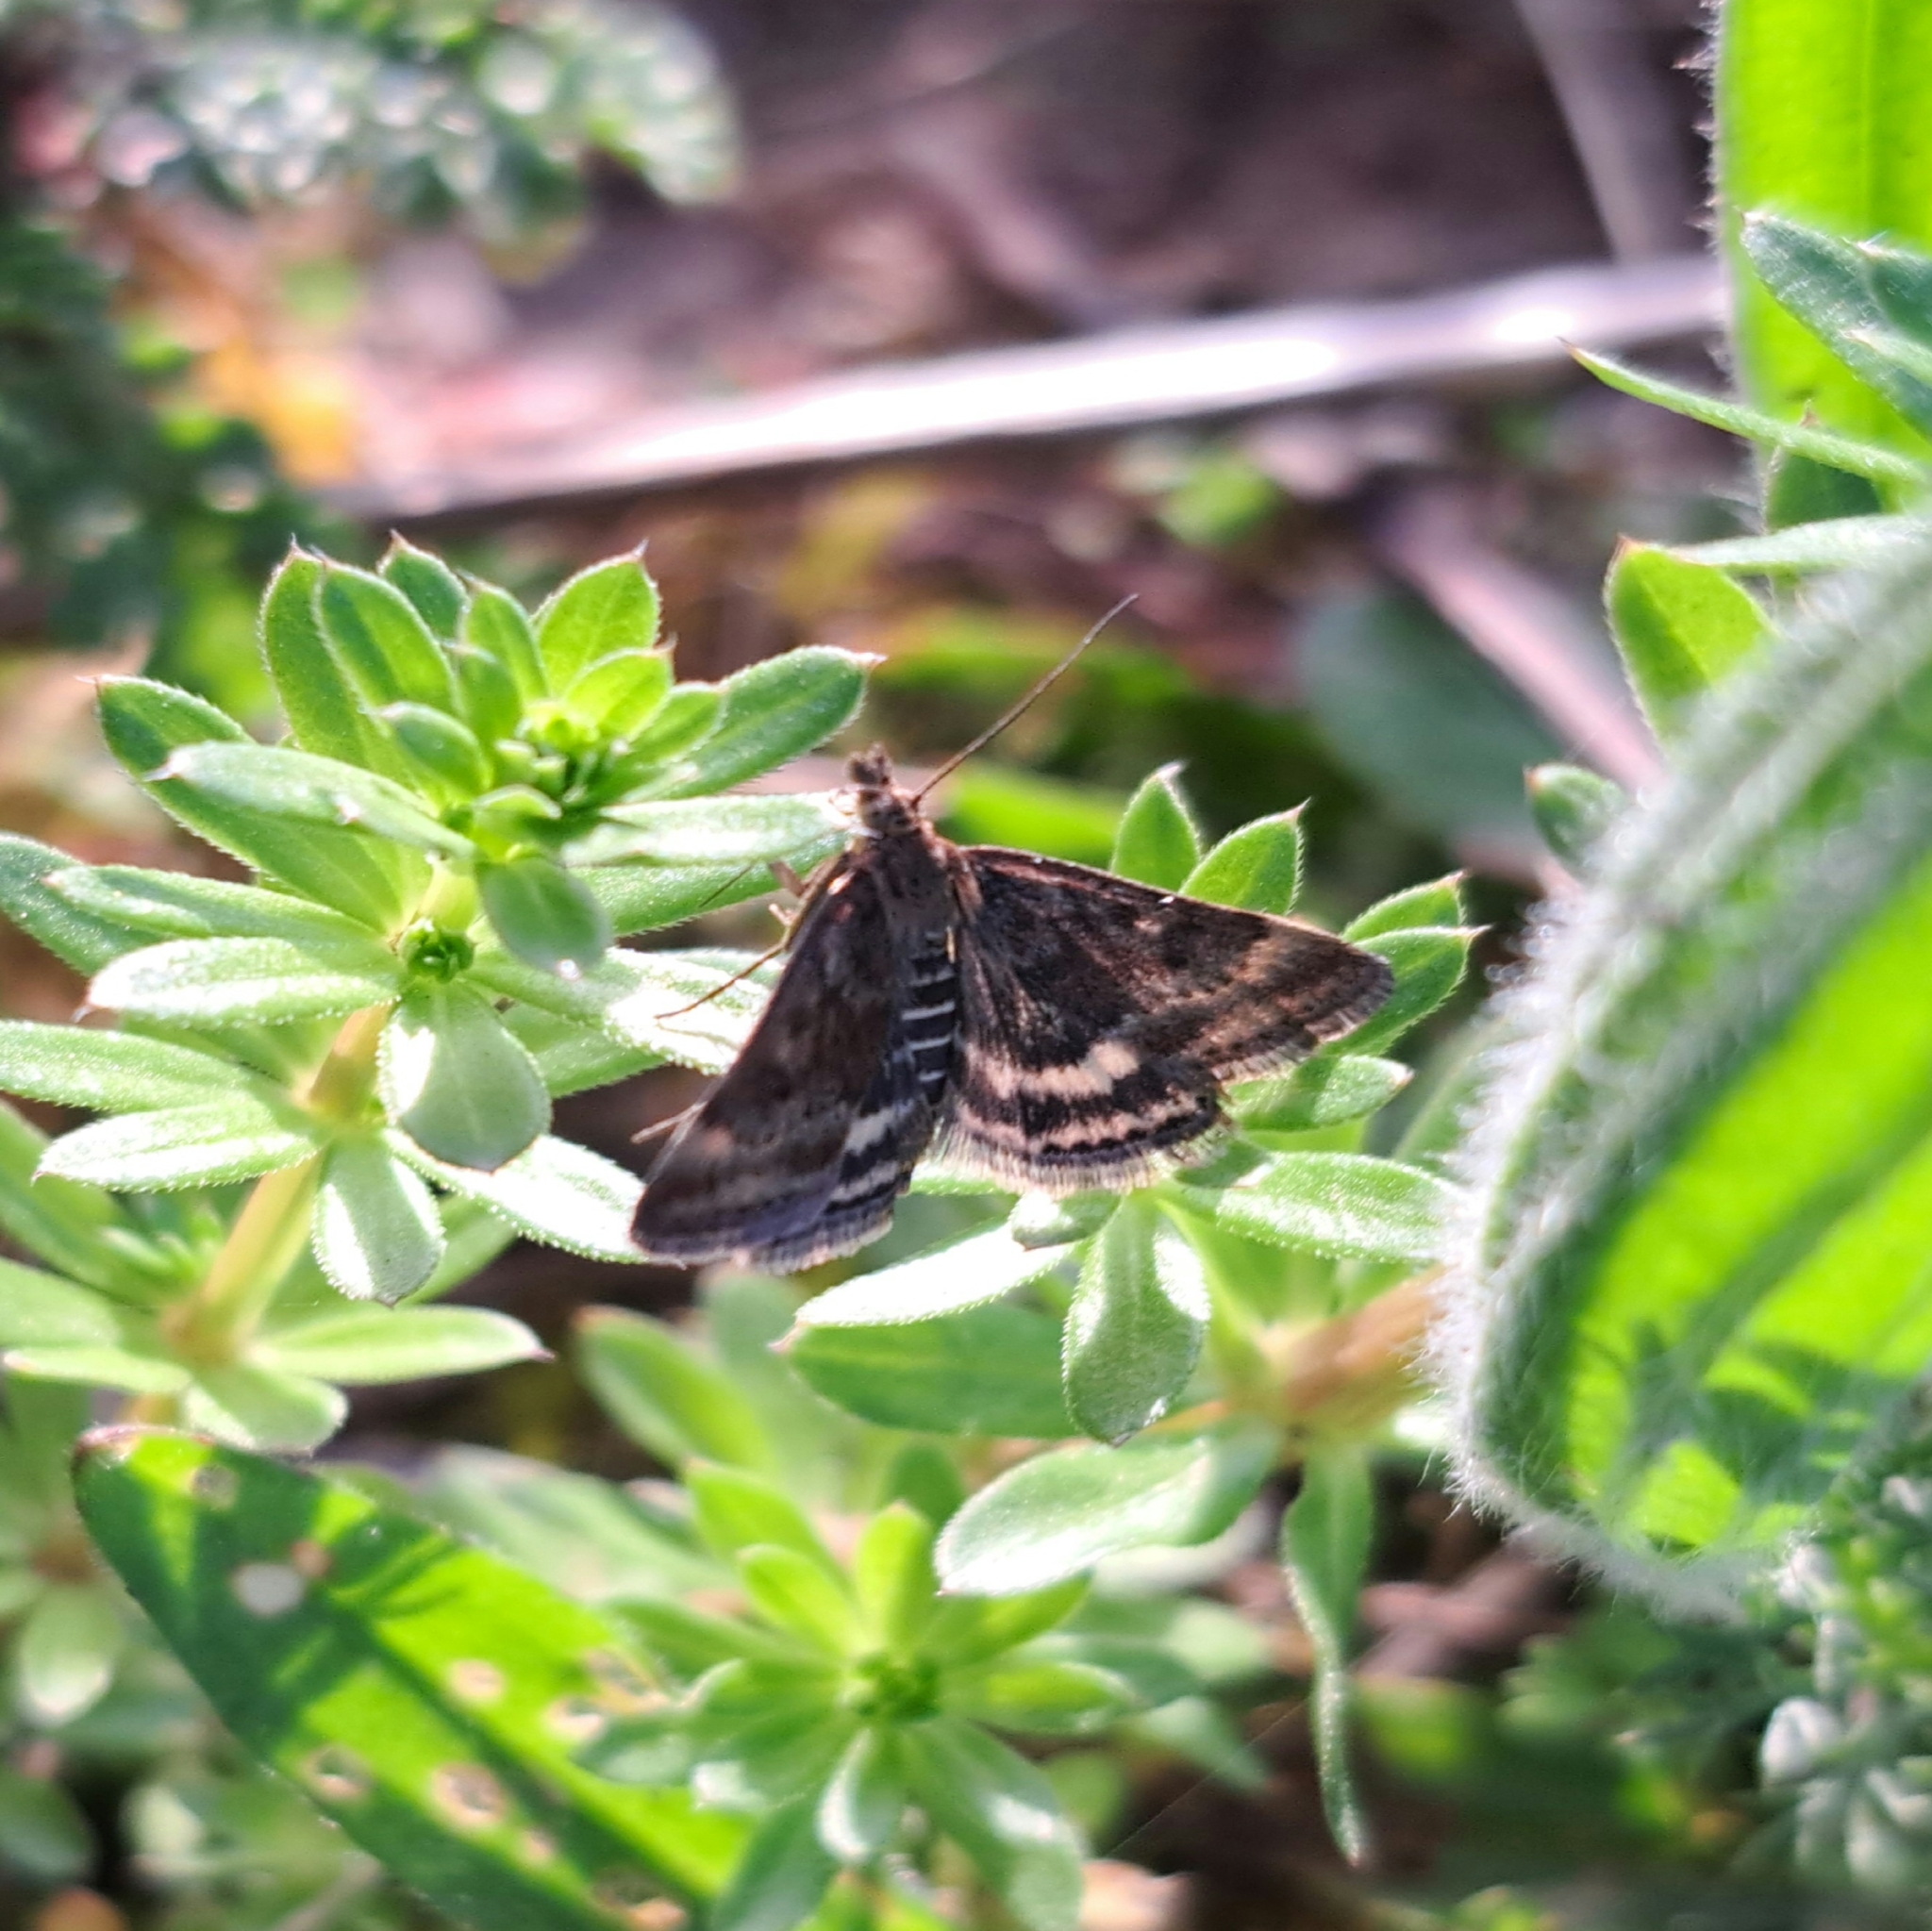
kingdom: Animalia
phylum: Arthropoda
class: Insecta
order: Lepidoptera
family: Crambidae
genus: Pyrausta
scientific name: Pyrausta despicata
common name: Straw-barred pearl
